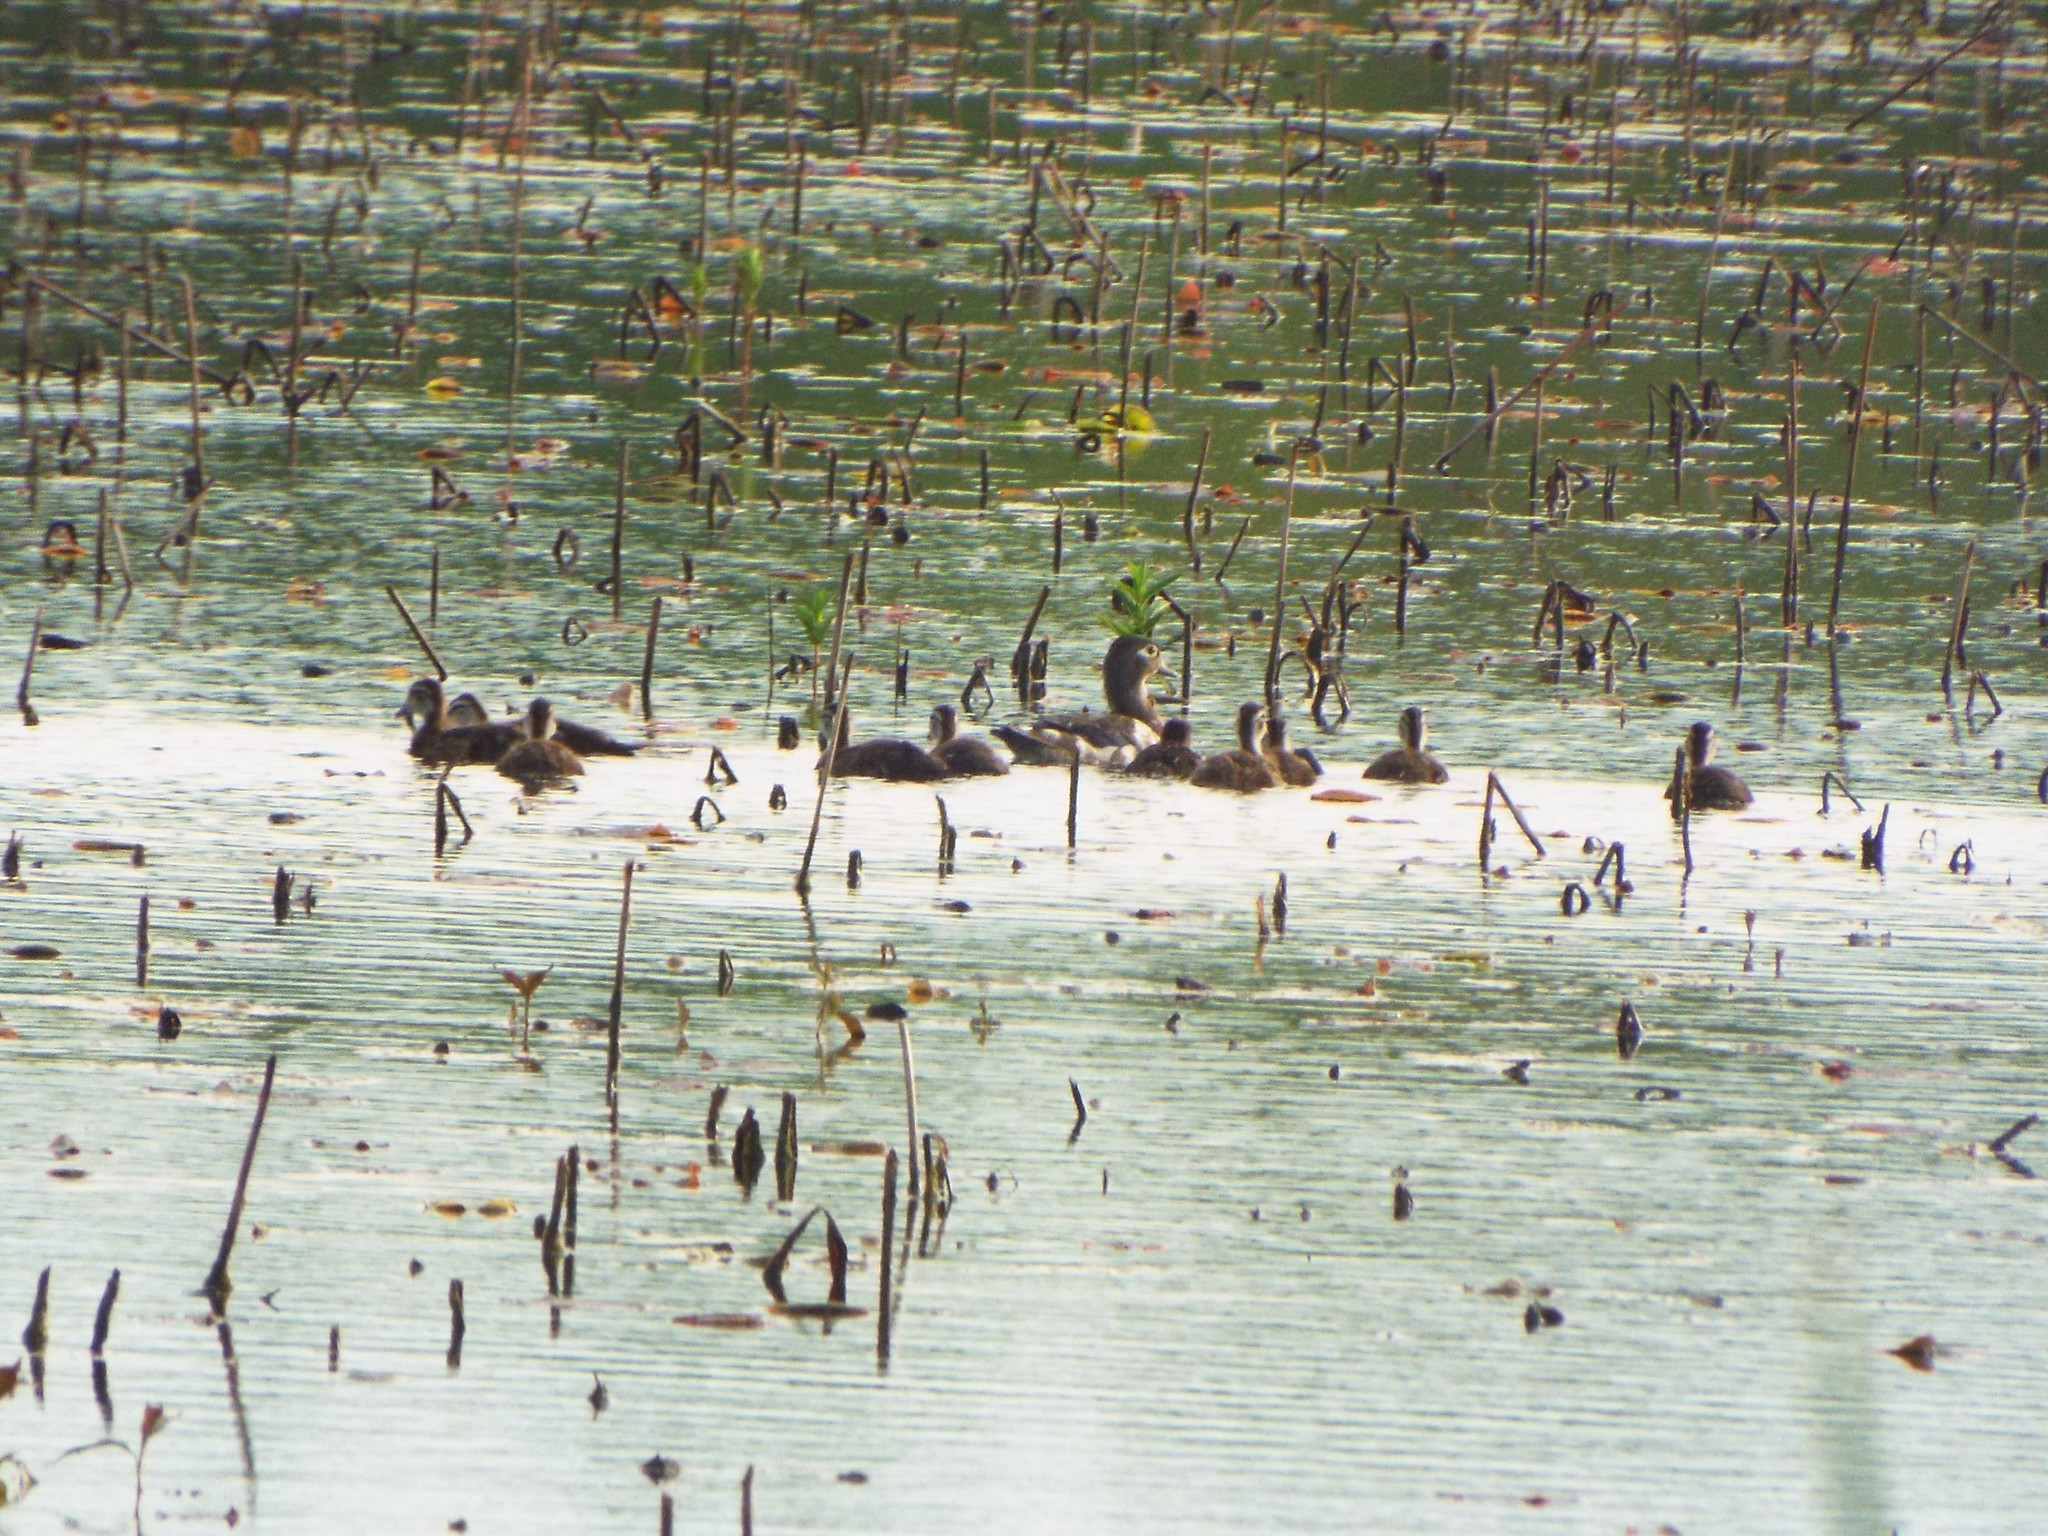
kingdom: Animalia
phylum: Chordata
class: Aves
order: Anseriformes
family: Anatidae
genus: Aix
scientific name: Aix sponsa
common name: Wood duck
